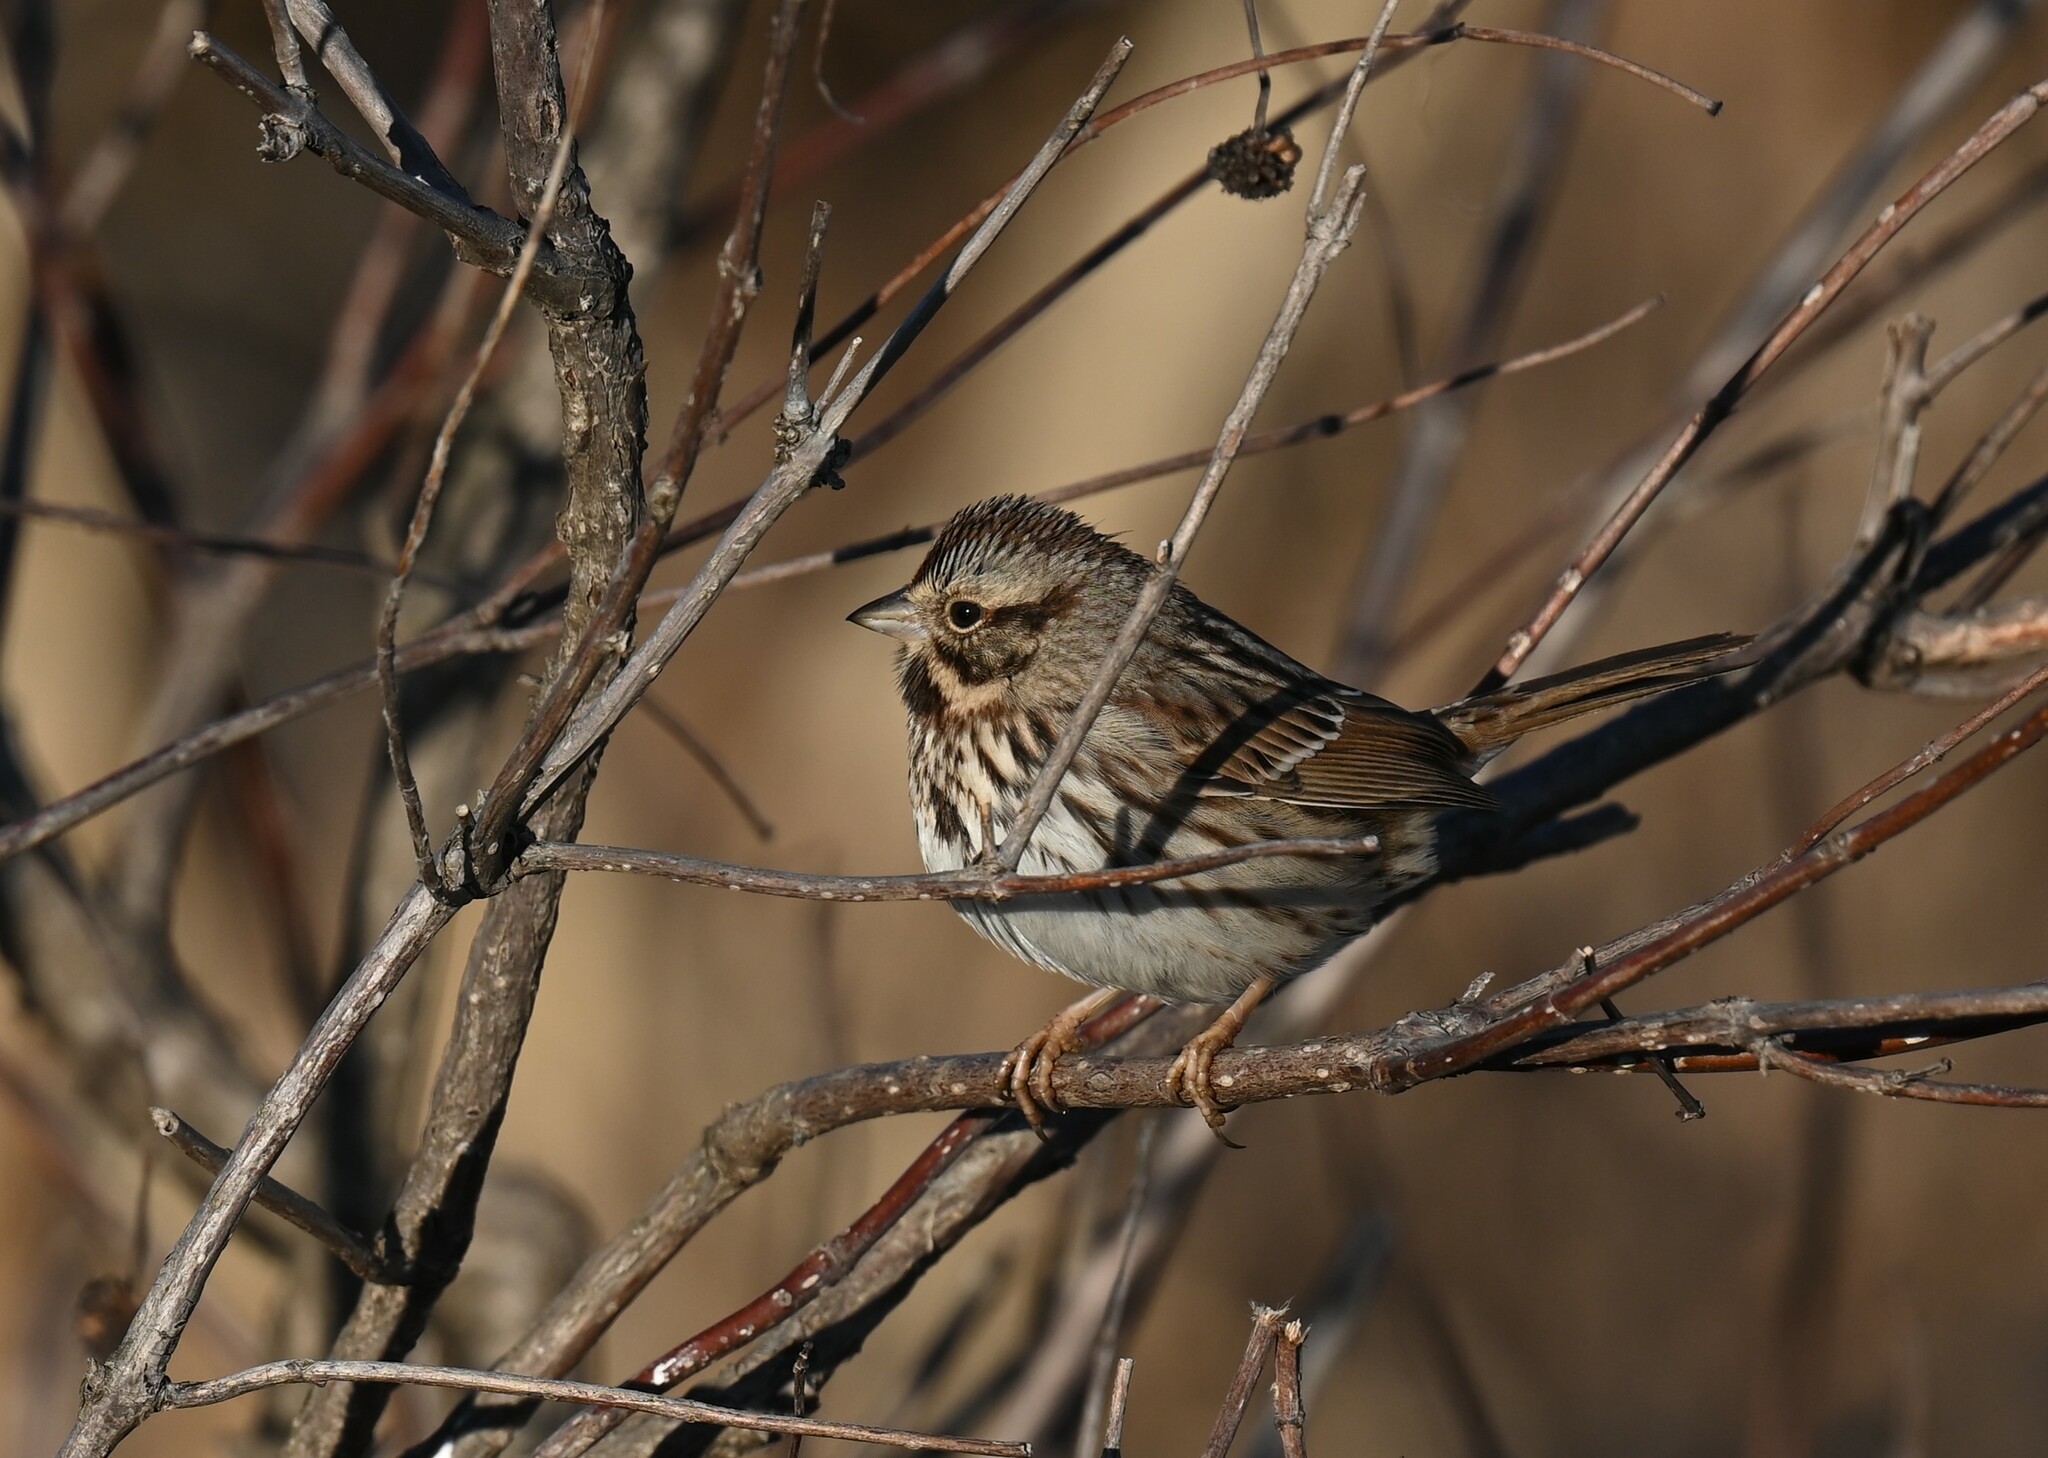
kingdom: Animalia
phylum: Chordata
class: Aves
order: Passeriformes
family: Passerellidae
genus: Melospiza
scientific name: Melospiza melodia
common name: Song sparrow
